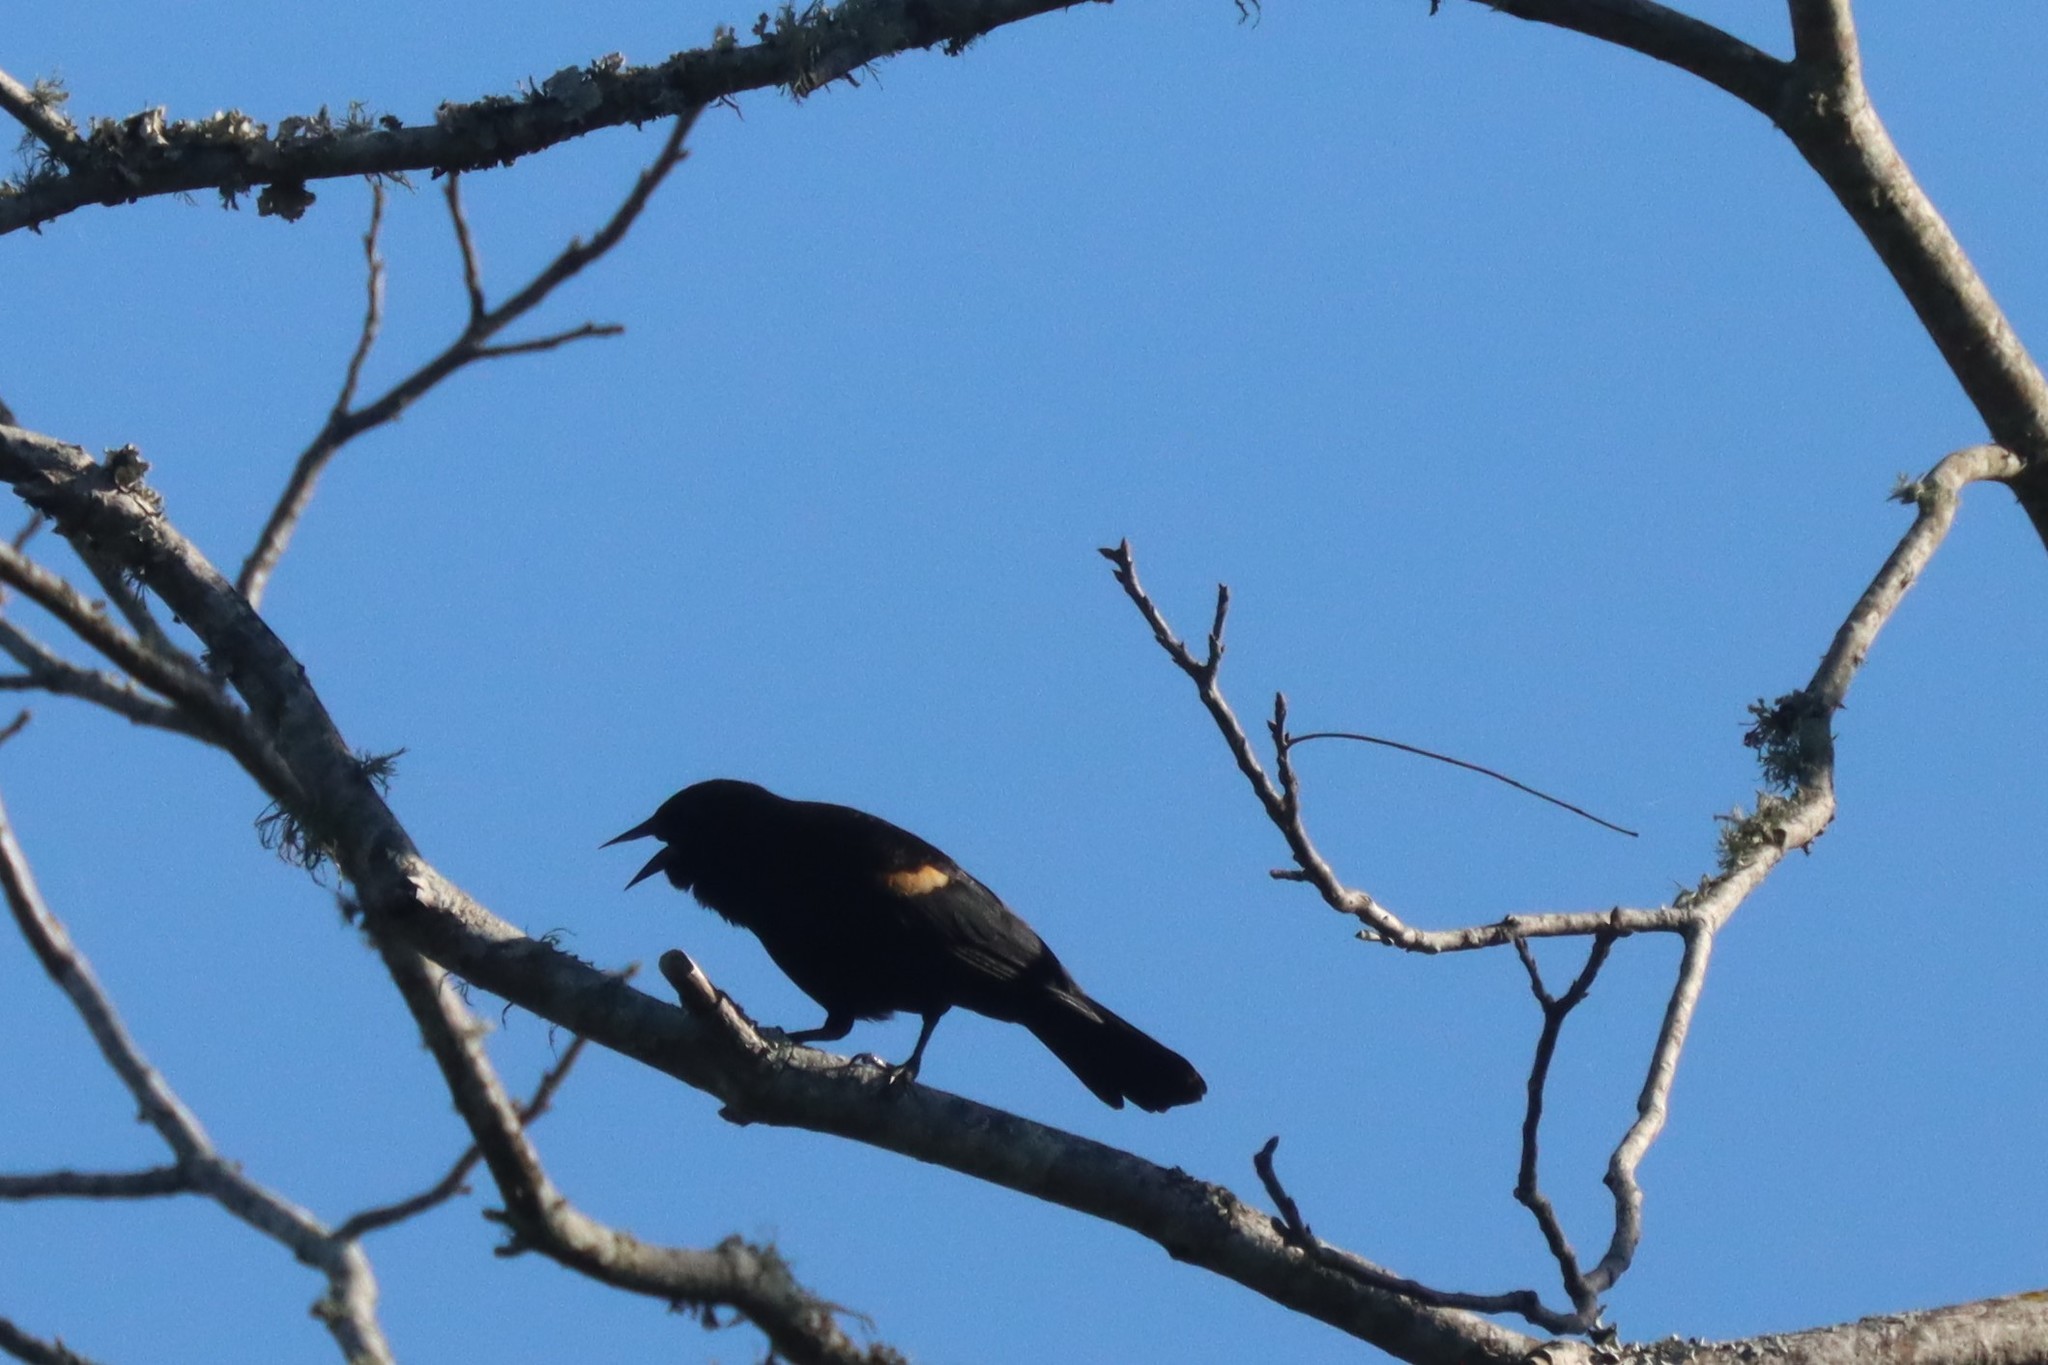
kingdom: Animalia
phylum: Chordata
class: Aves
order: Passeriformes
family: Icteridae
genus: Agelaius
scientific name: Agelaius phoeniceus
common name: Red-winged blackbird
